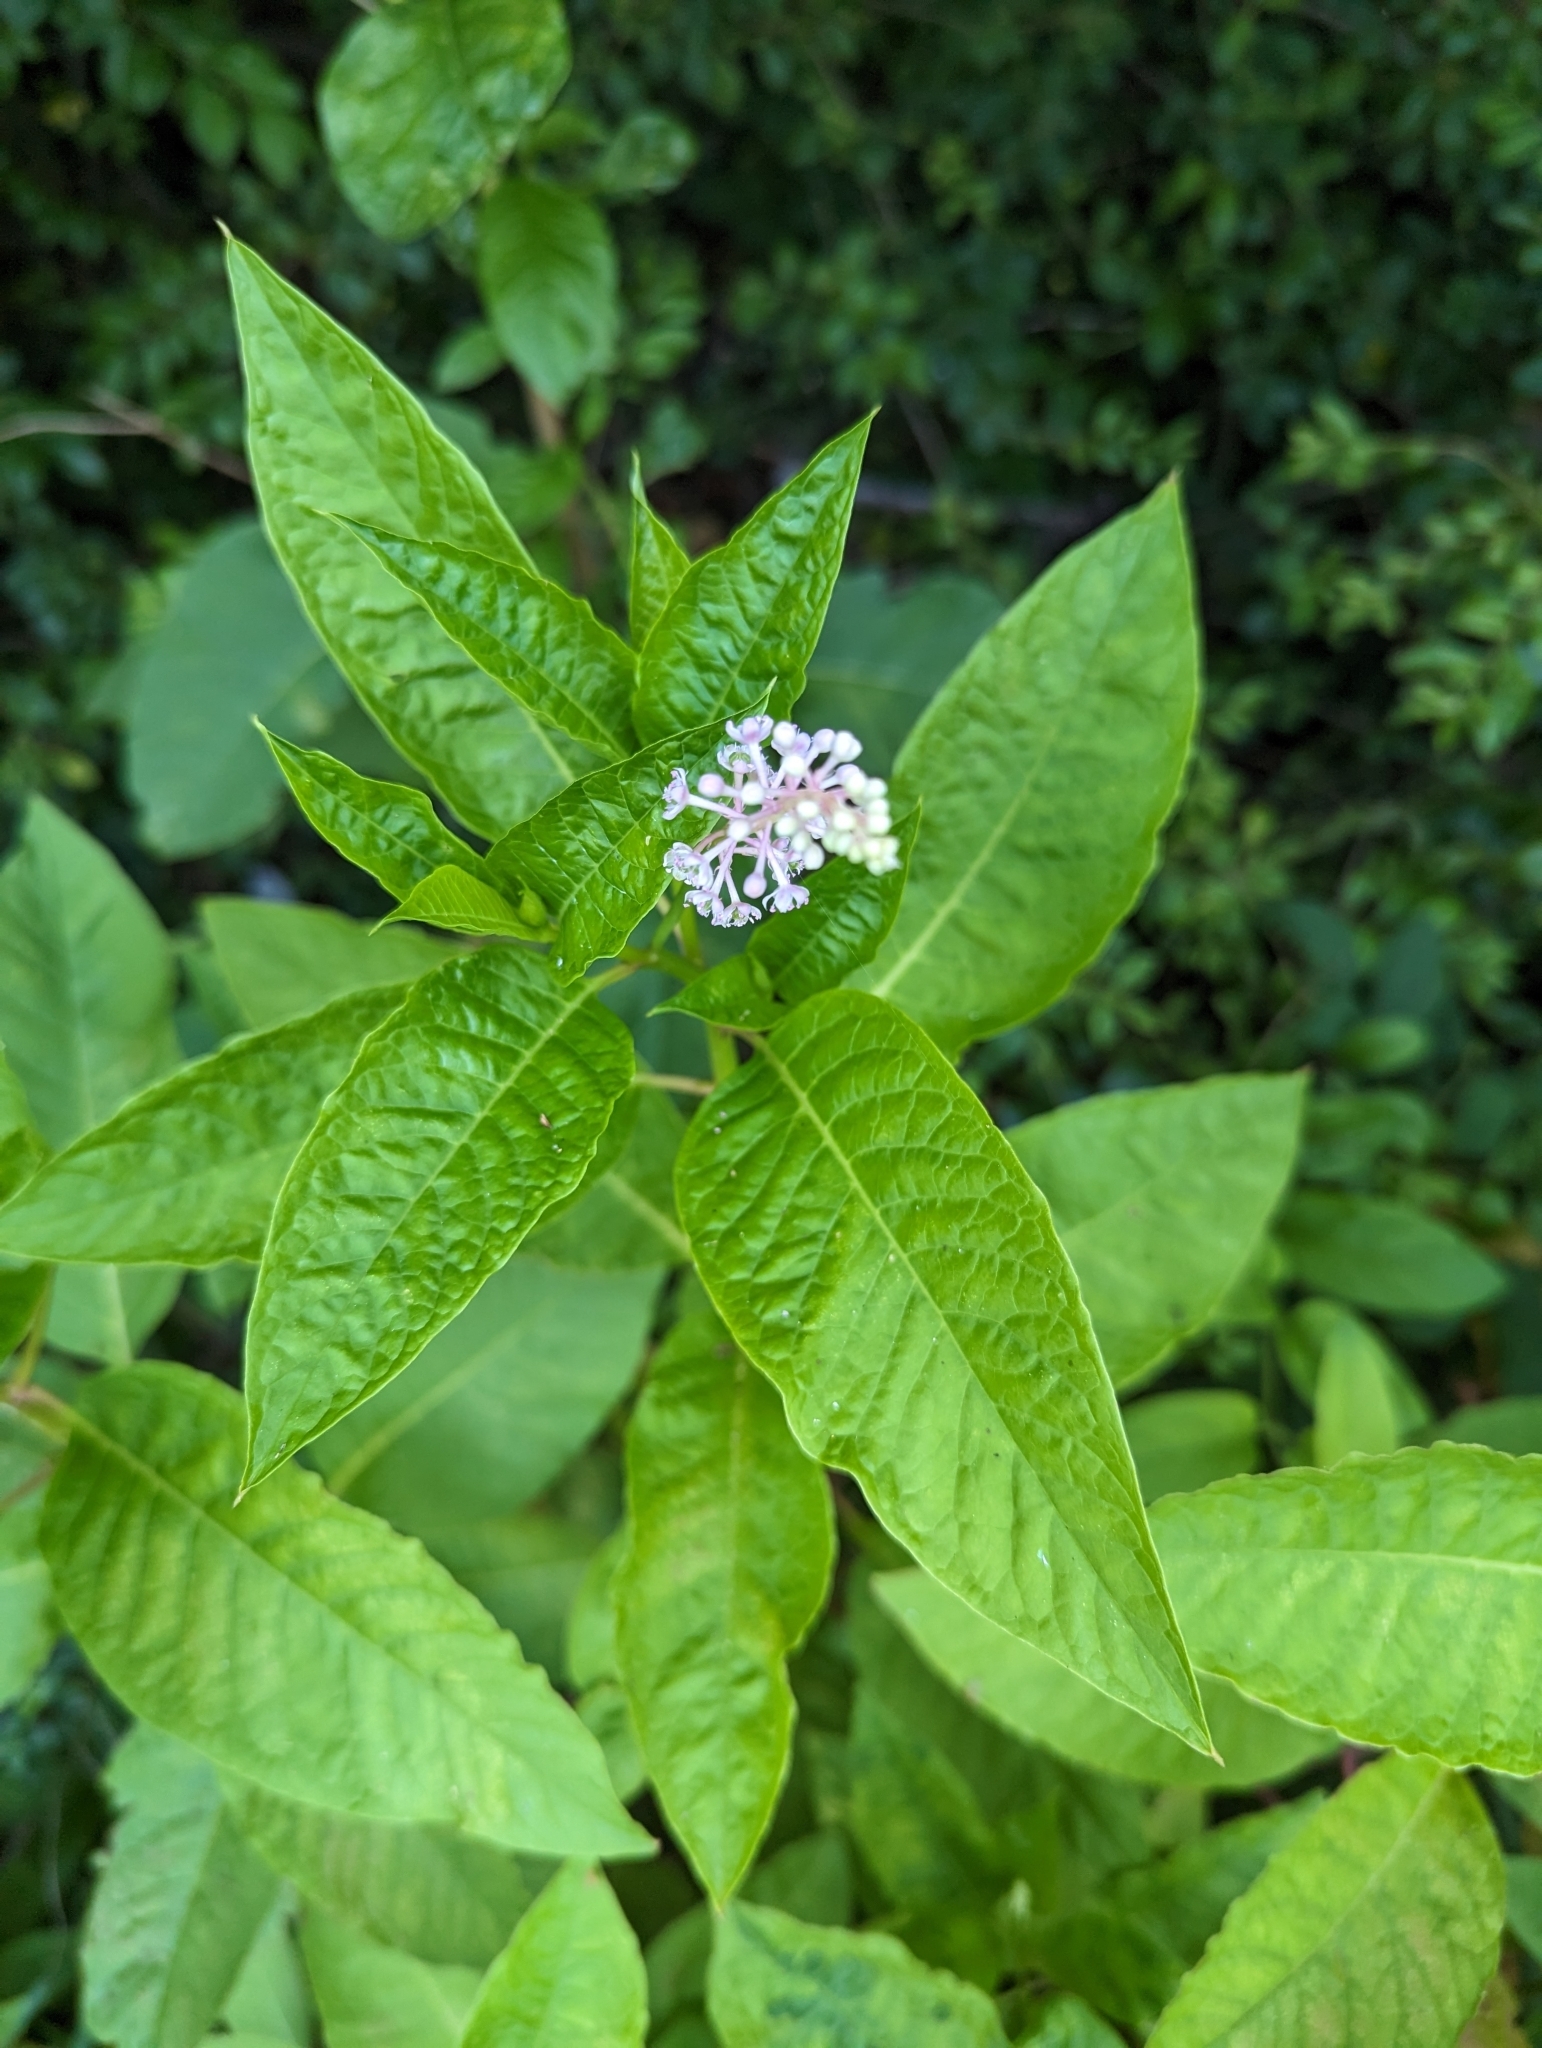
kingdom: Plantae
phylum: Tracheophyta
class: Magnoliopsida
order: Caryophyllales
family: Phytolaccaceae
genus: Phytolacca
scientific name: Phytolacca americana
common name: American pokeweed
